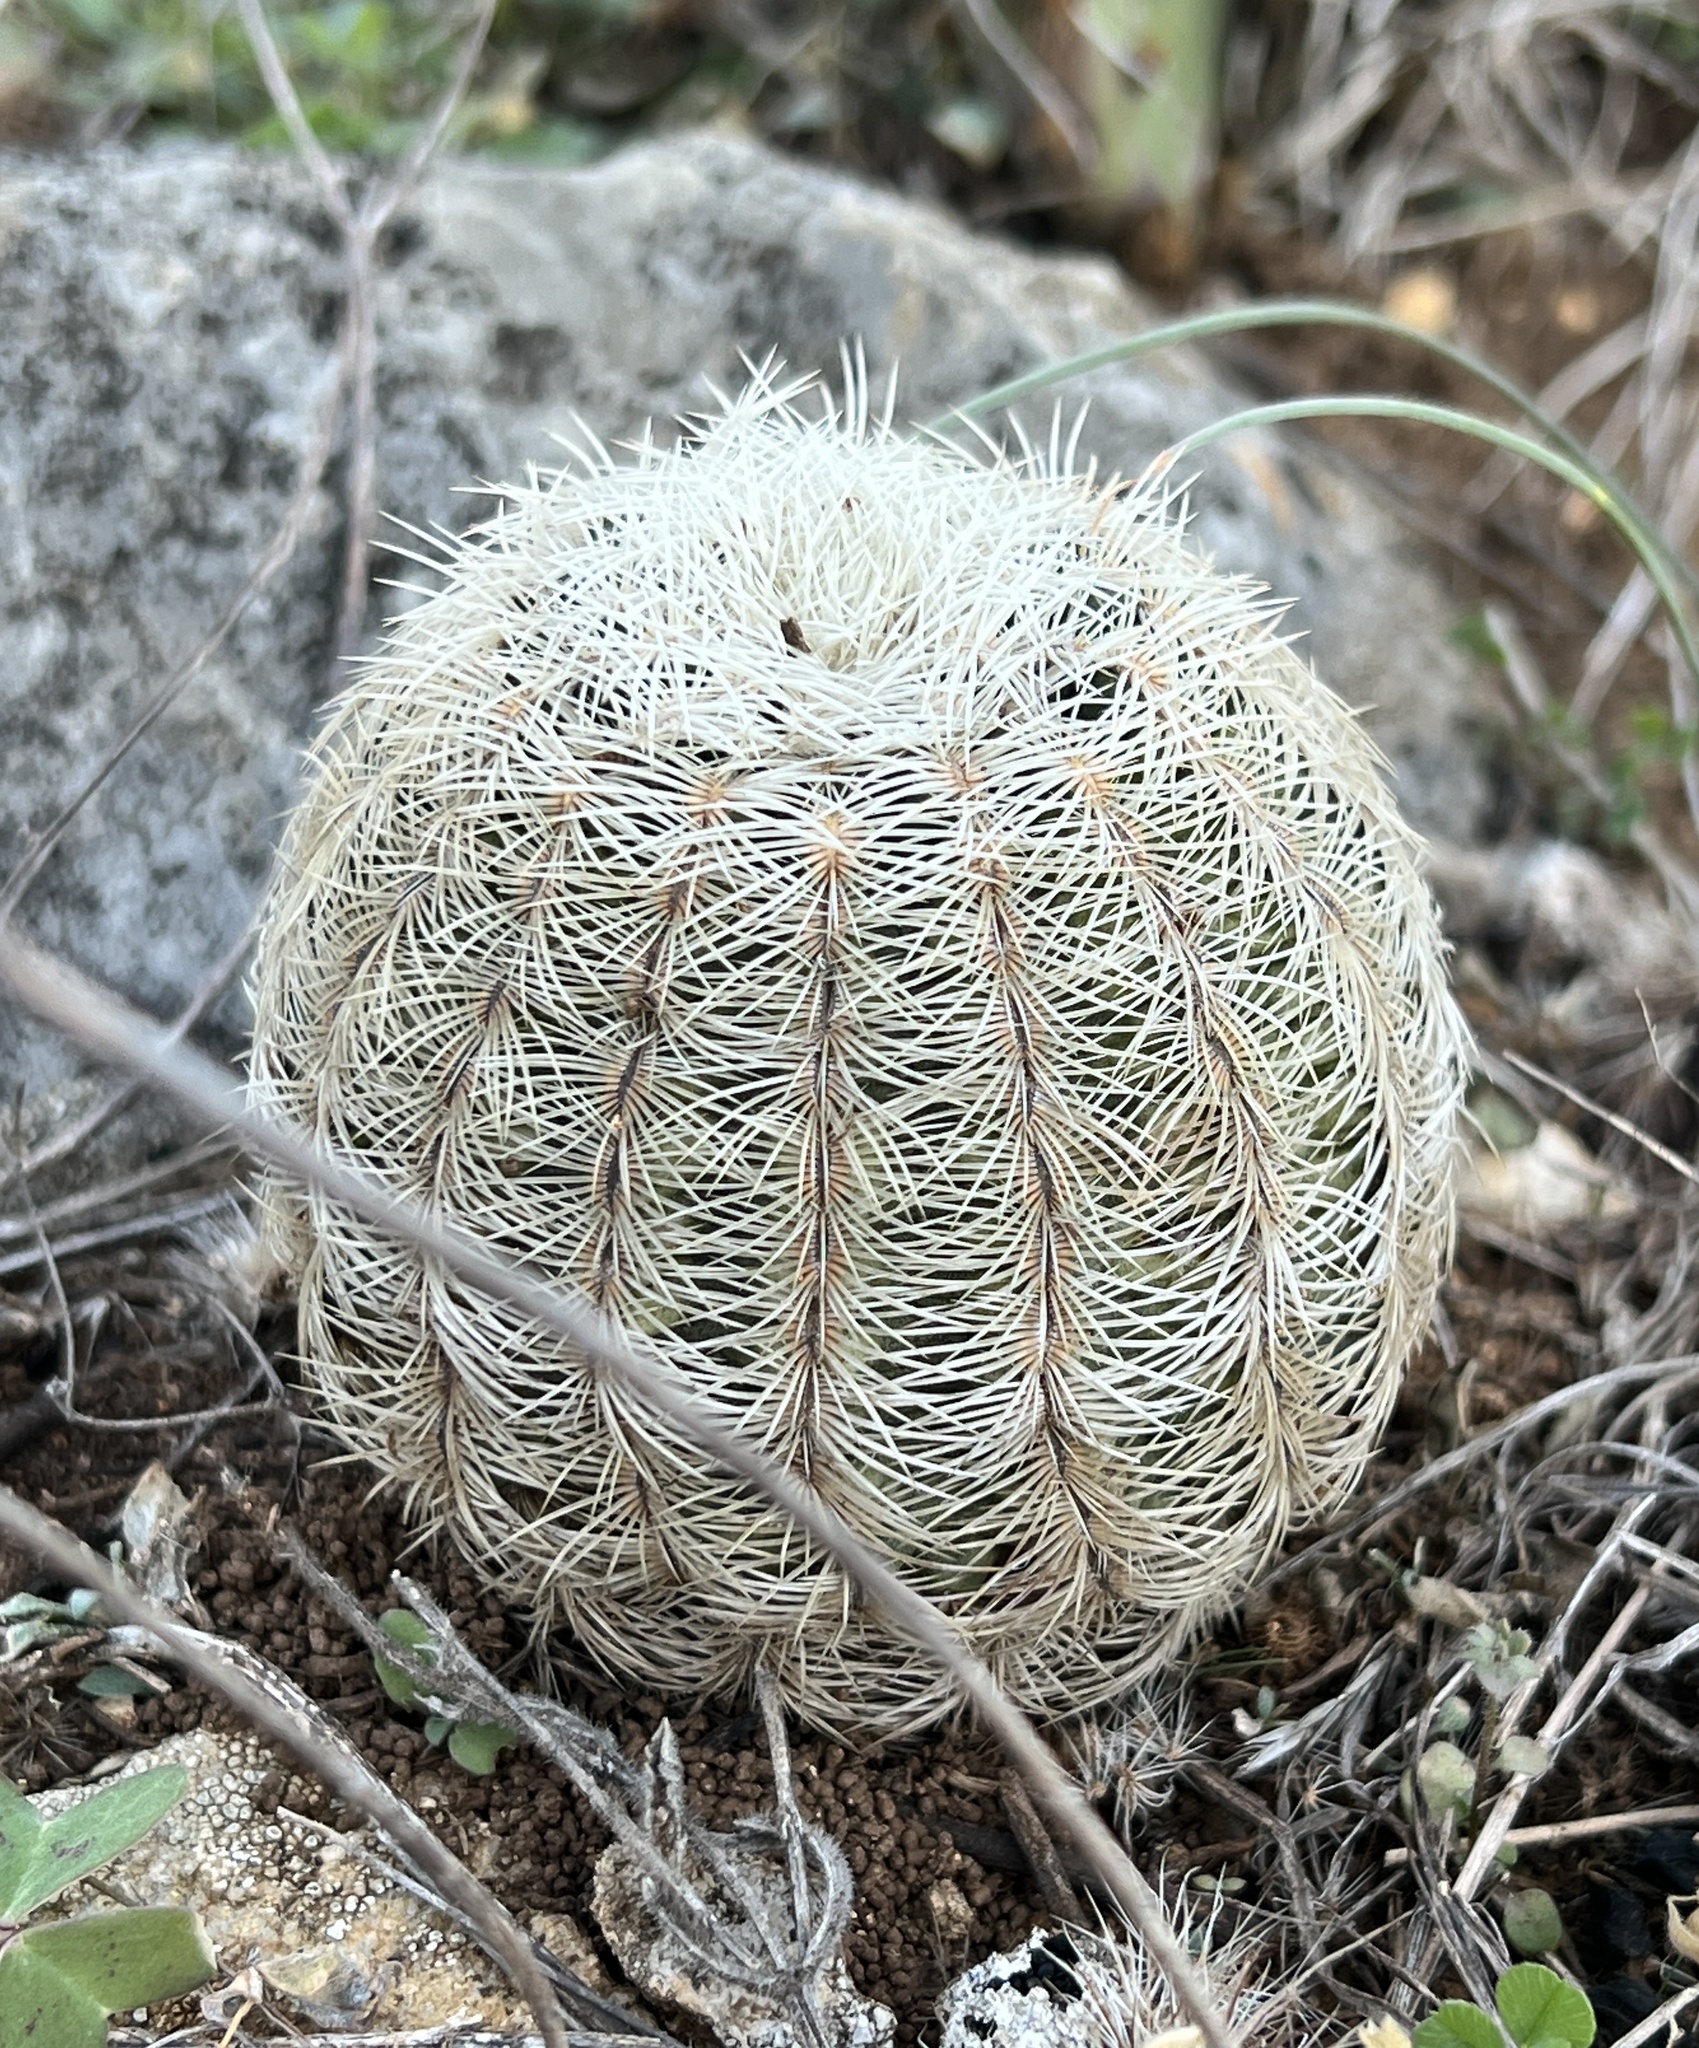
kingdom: Plantae
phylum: Tracheophyta
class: Magnoliopsida
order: Caryophyllales
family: Cactaceae
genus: Echinocereus
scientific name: Echinocereus reichenbachii
